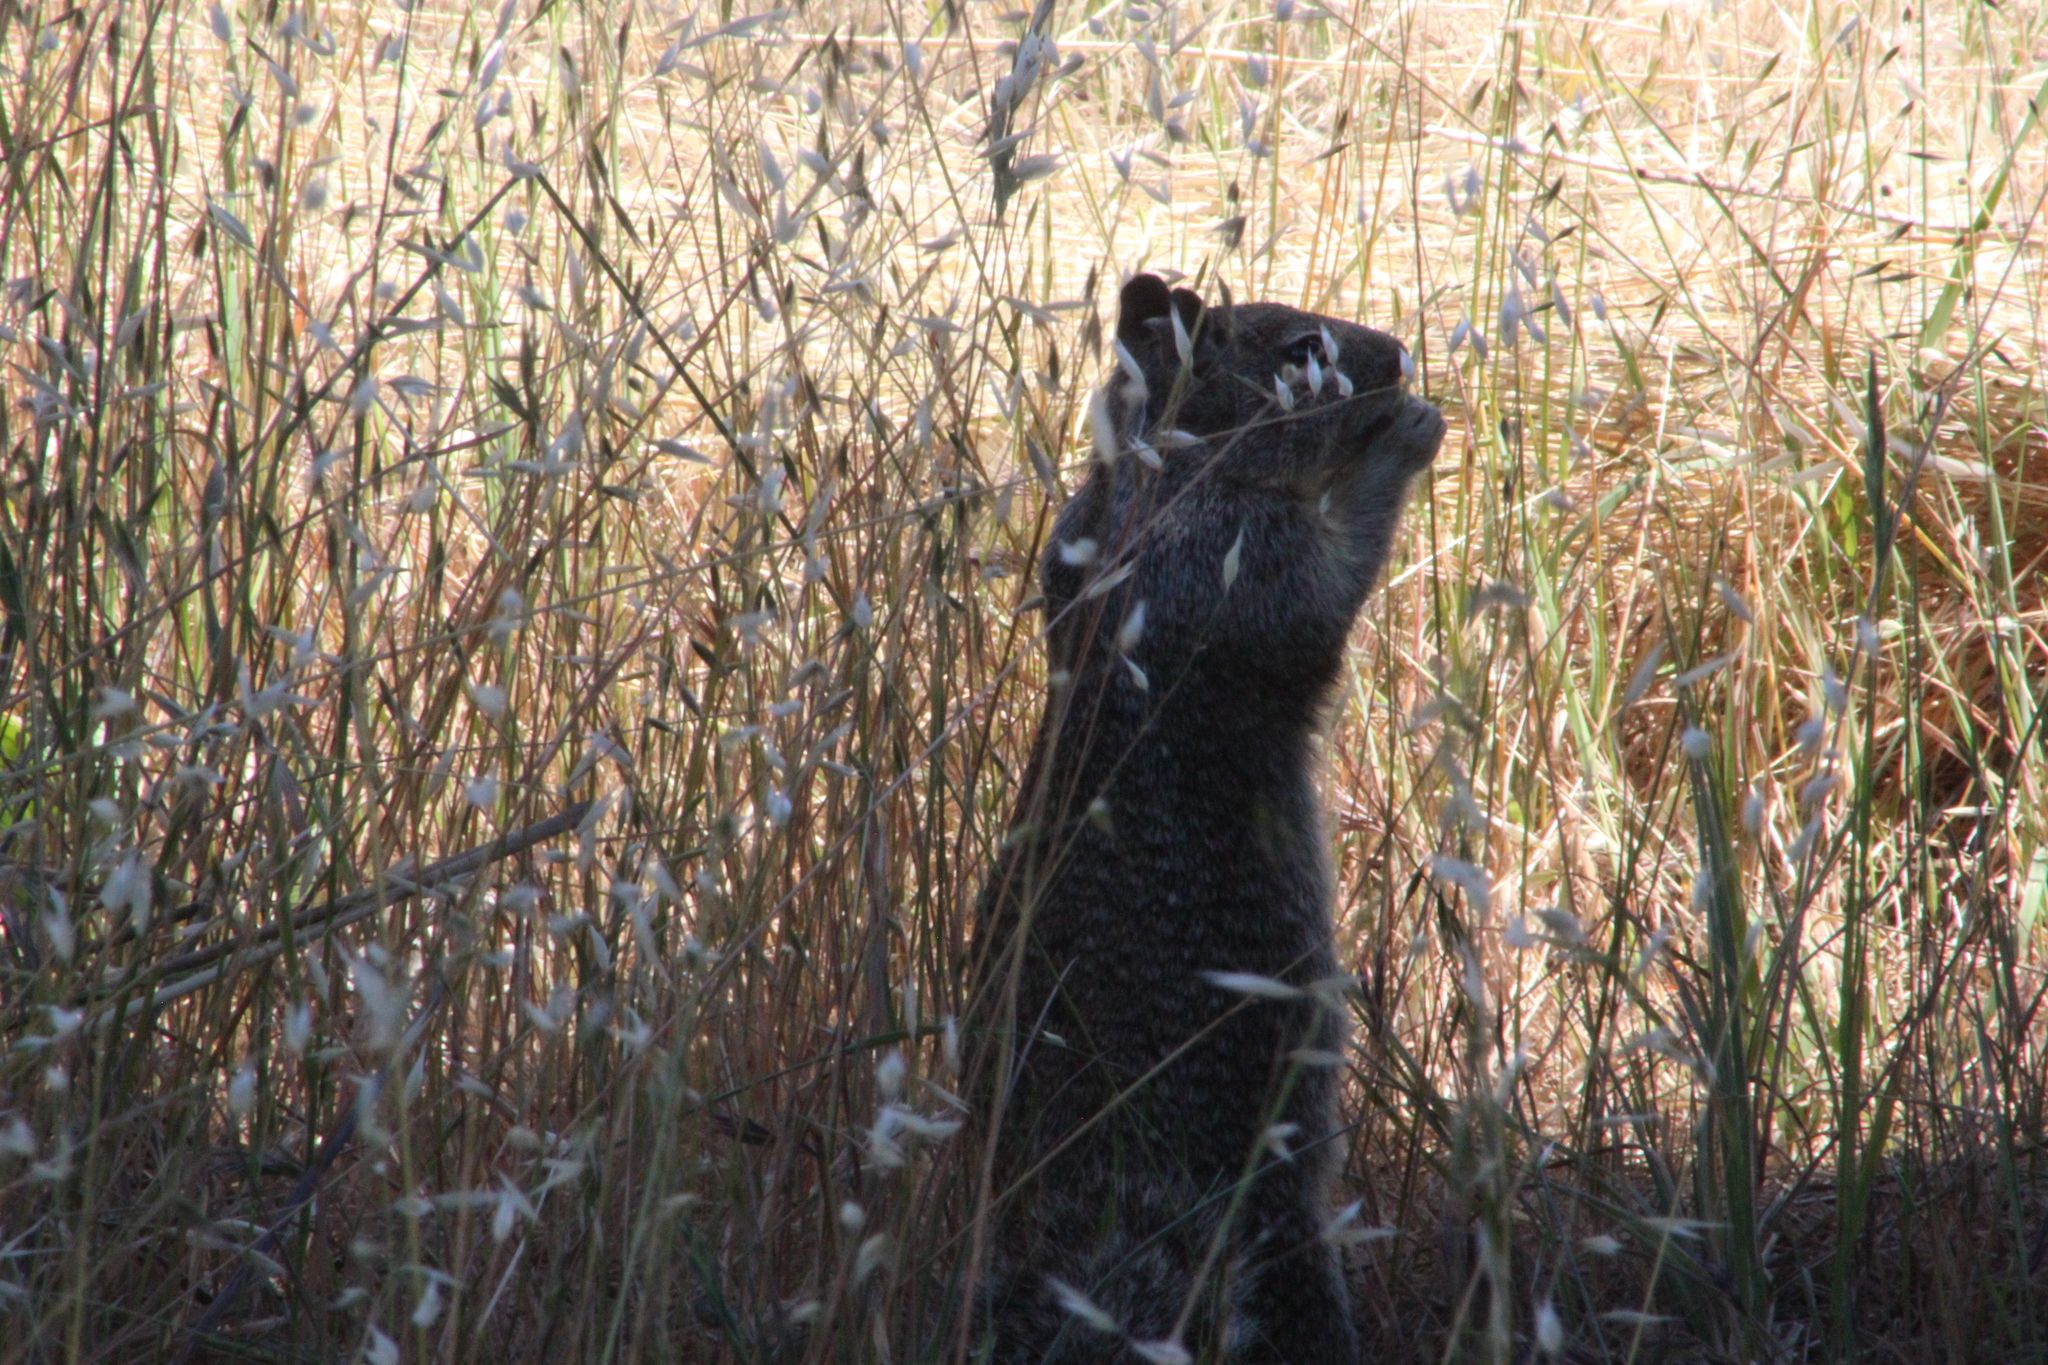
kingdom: Animalia
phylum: Chordata
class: Mammalia
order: Rodentia
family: Sciuridae
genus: Otospermophilus
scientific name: Otospermophilus beecheyi
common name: California ground squirrel
